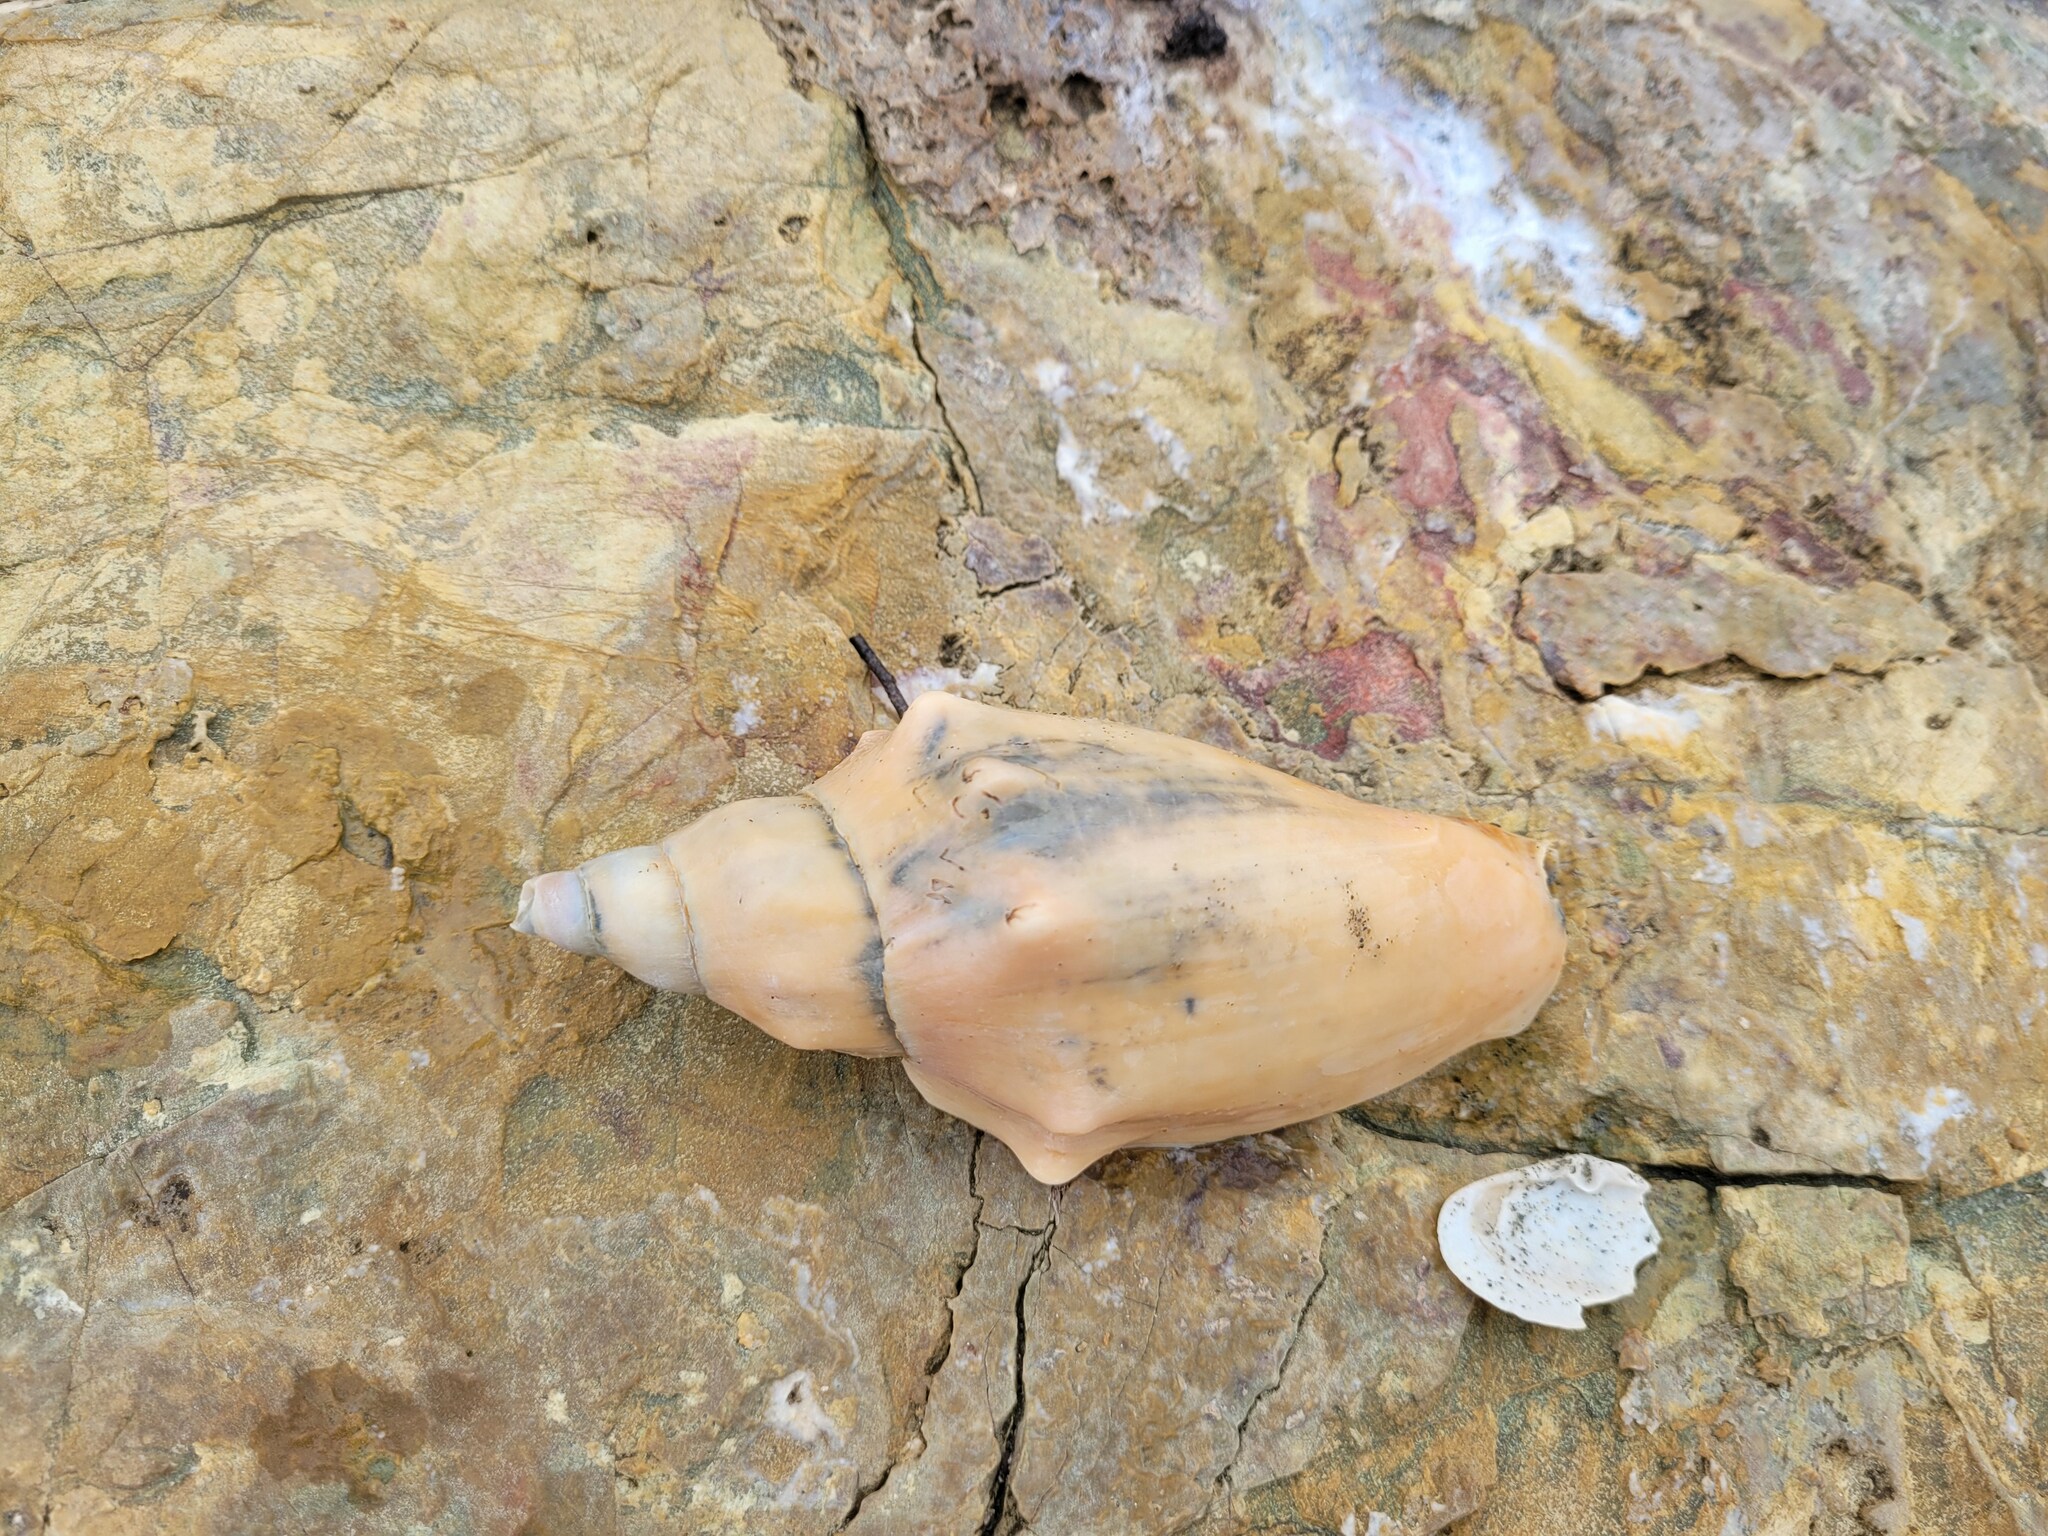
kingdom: Animalia
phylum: Mollusca
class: Gastropoda
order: Neogastropoda
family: Volutidae
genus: Alcithoe
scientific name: Alcithoe arabica
